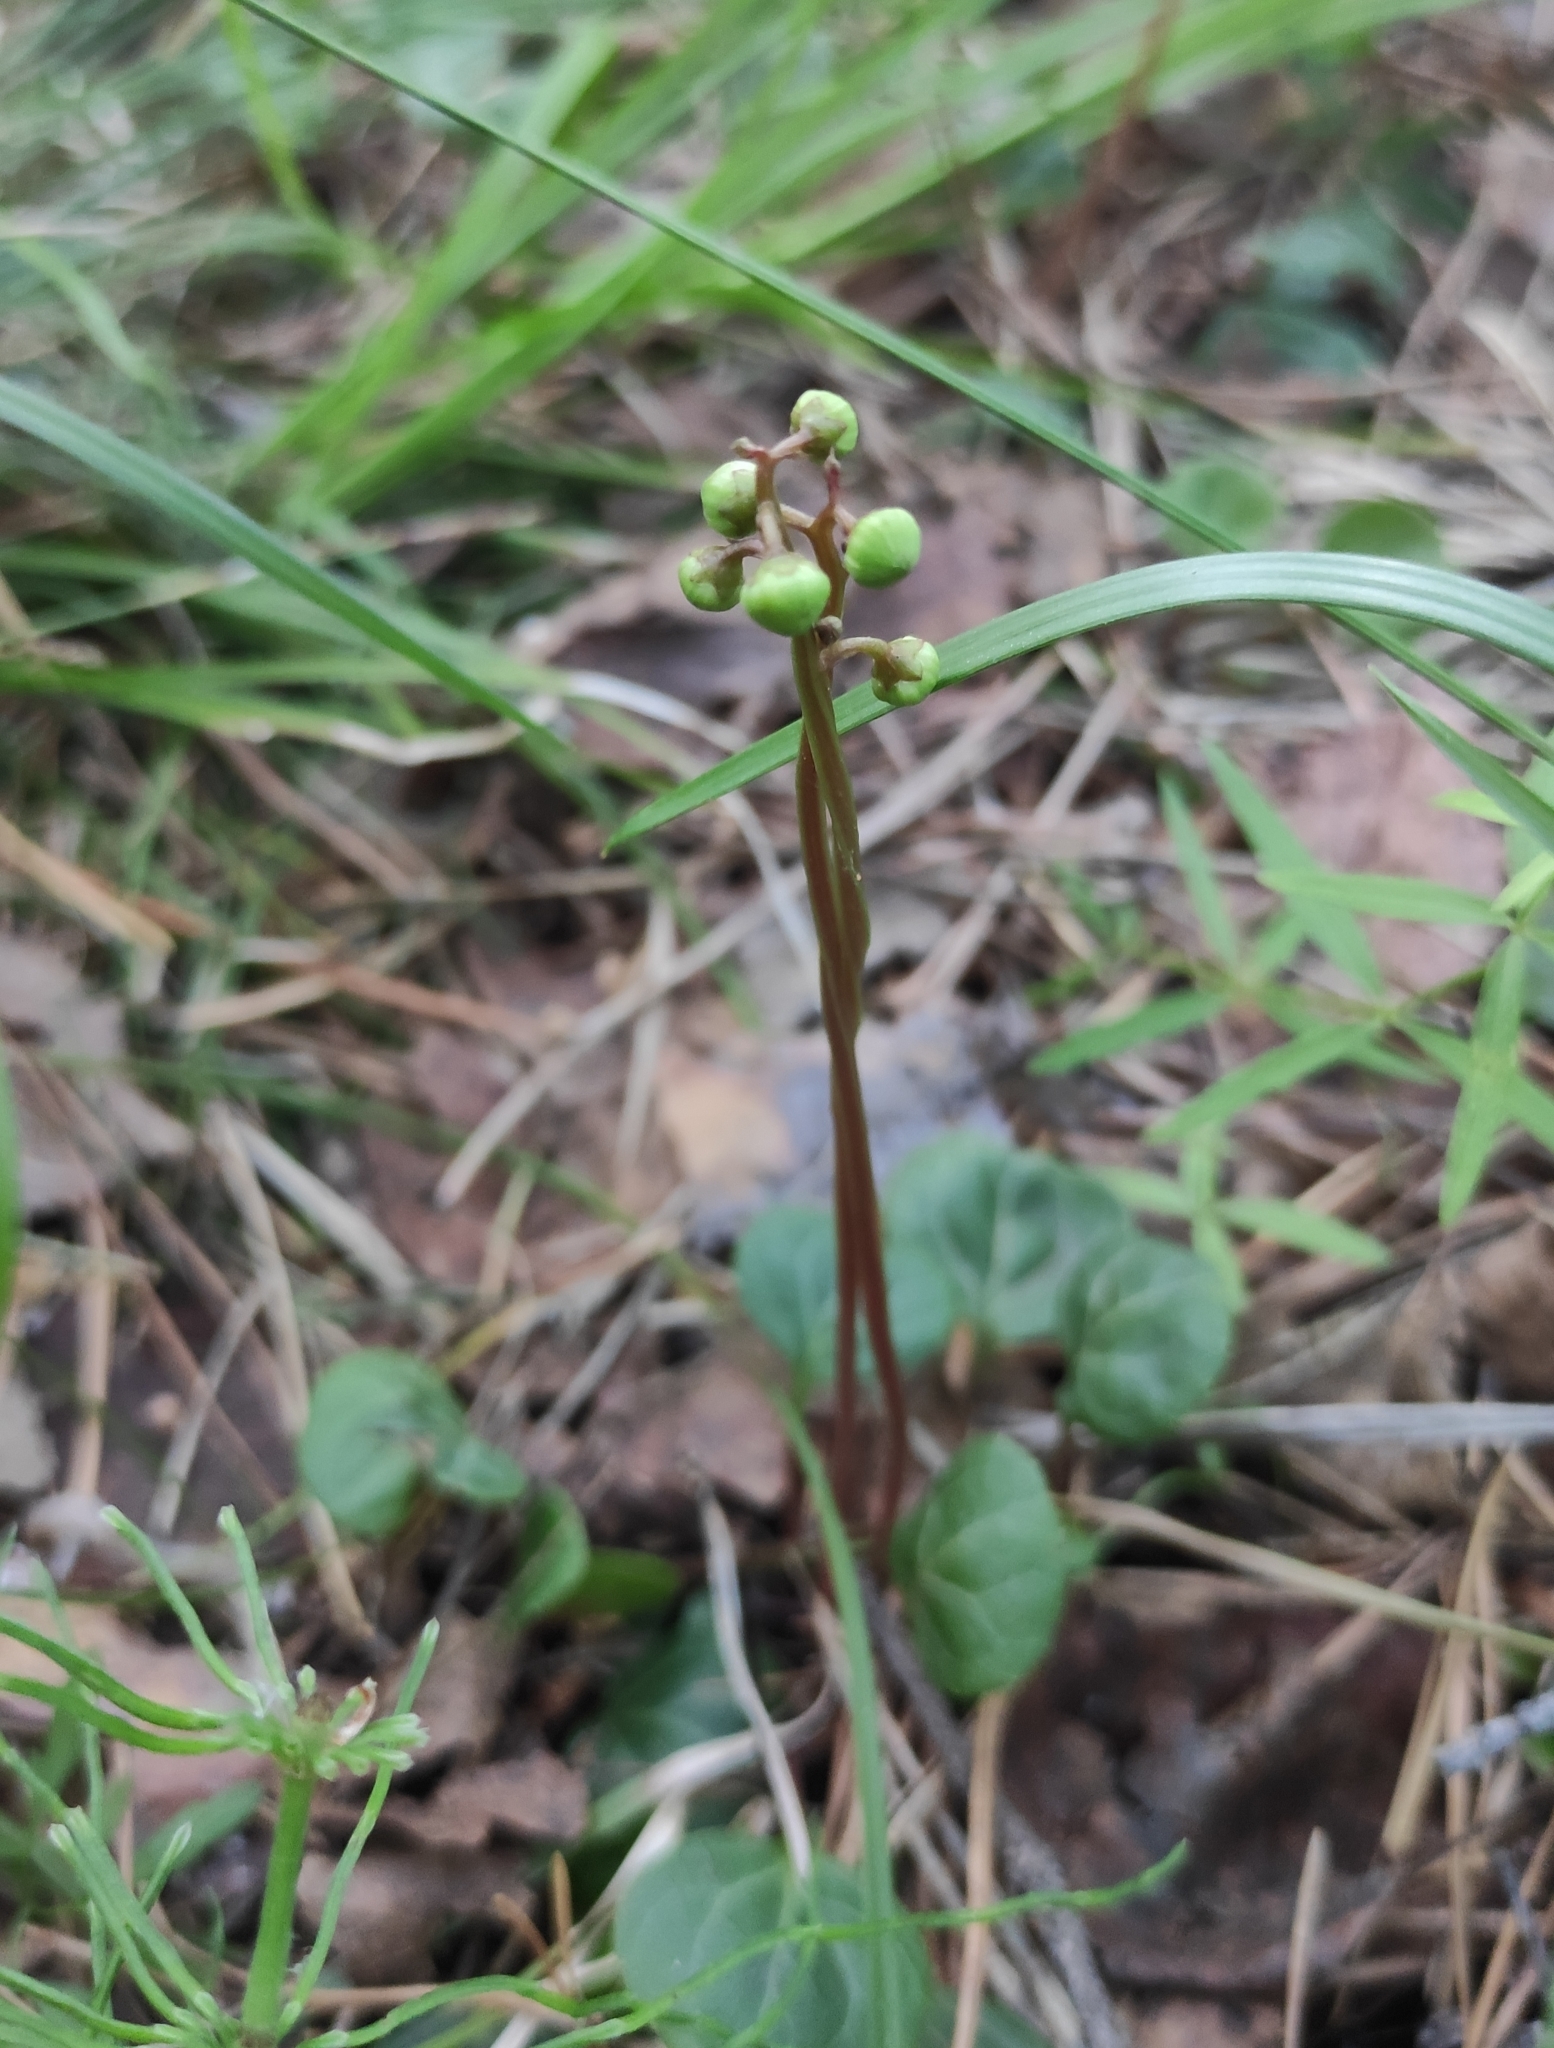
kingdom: Plantae
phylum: Tracheophyta
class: Magnoliopsida
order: Ericales
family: Ericaceae
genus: Pyrola
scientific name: Pyrola chlorantha
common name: Green wintergreen
